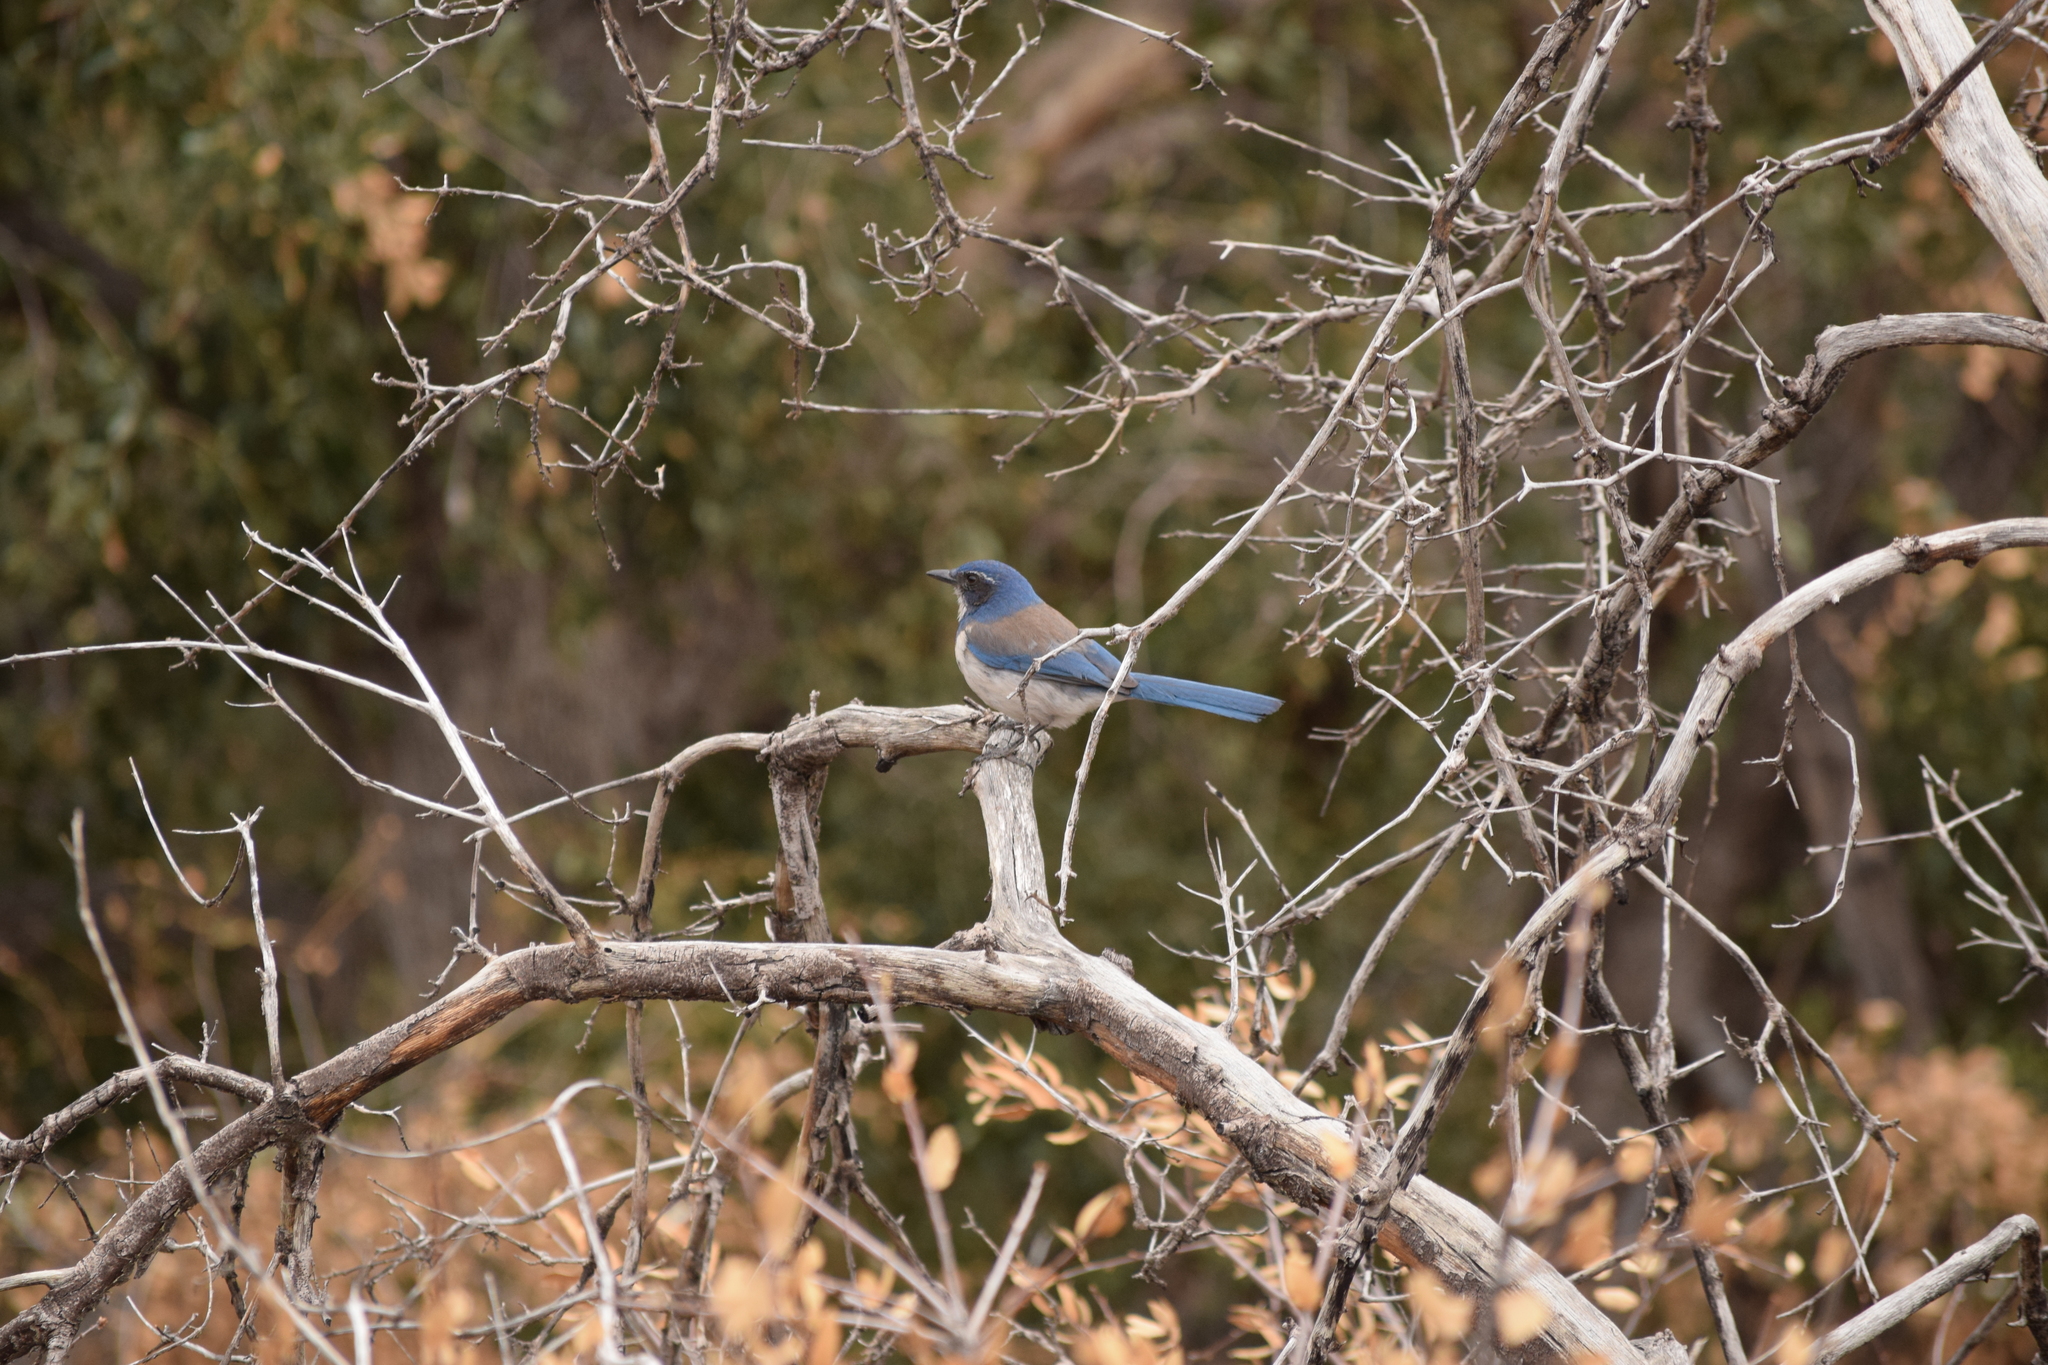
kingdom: Animalia
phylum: Chordata
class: Aves
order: Passeriformes
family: Corvidae
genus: Aphelocoma
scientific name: Aphelocoma californica
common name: California scrub-jay
